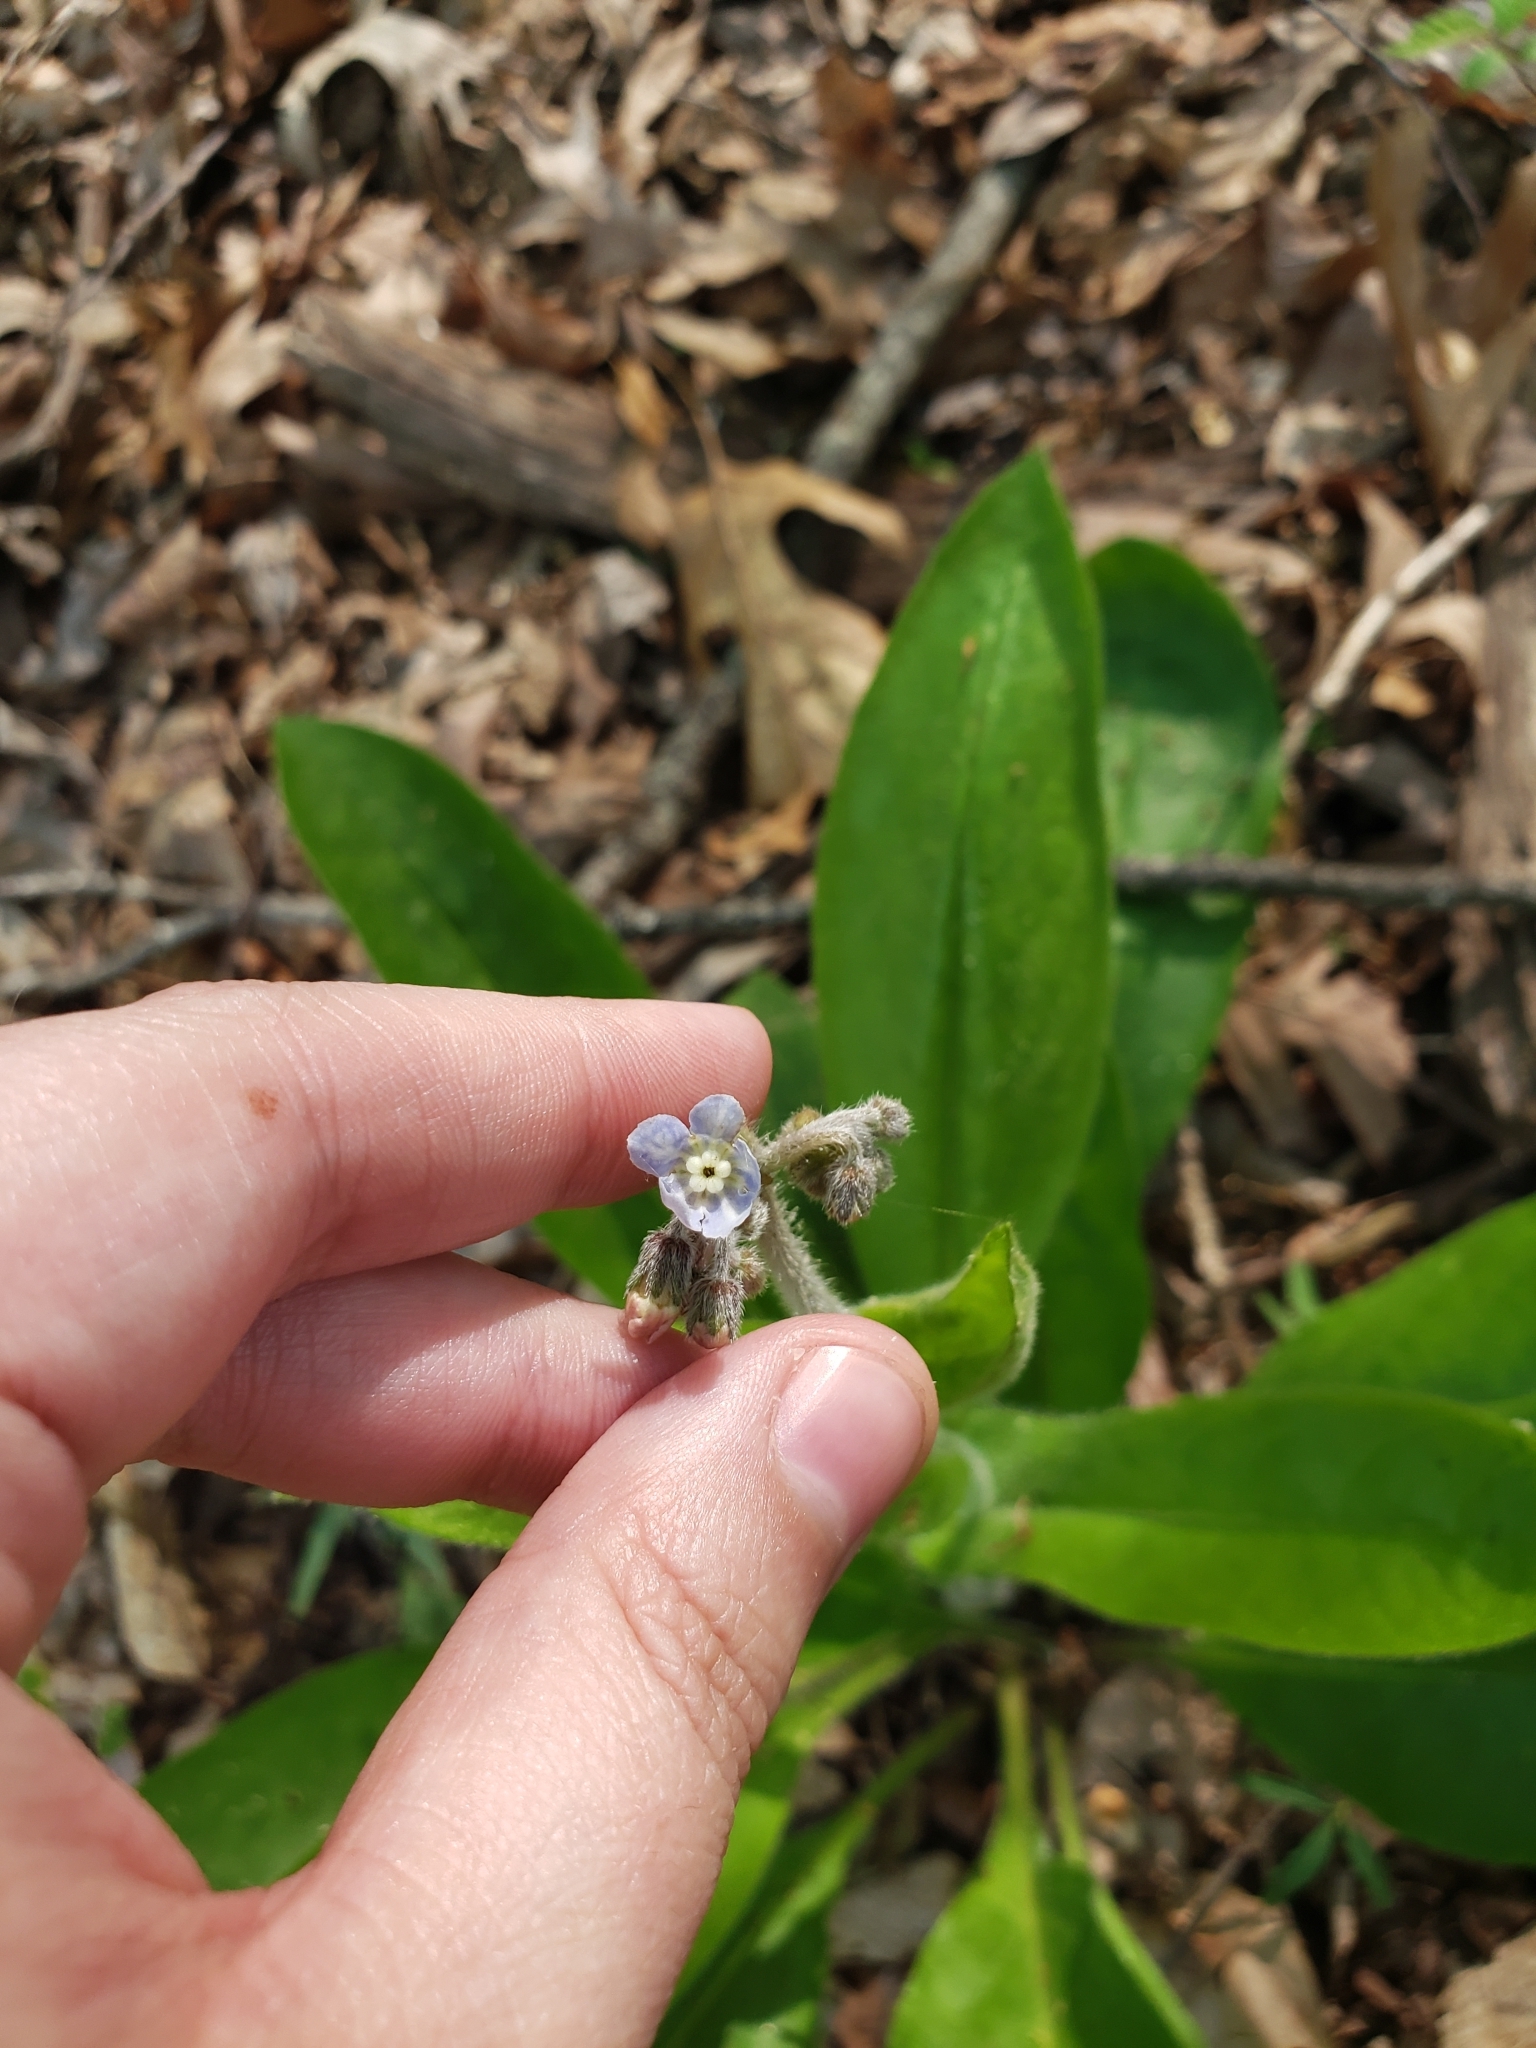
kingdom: Plantae
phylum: Tracheophyta
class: Magnoliopsida
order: Boraginales
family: Boraginaceae
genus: Andersonglossum
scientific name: Andersonglossum virginianum
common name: Wild comfrey
